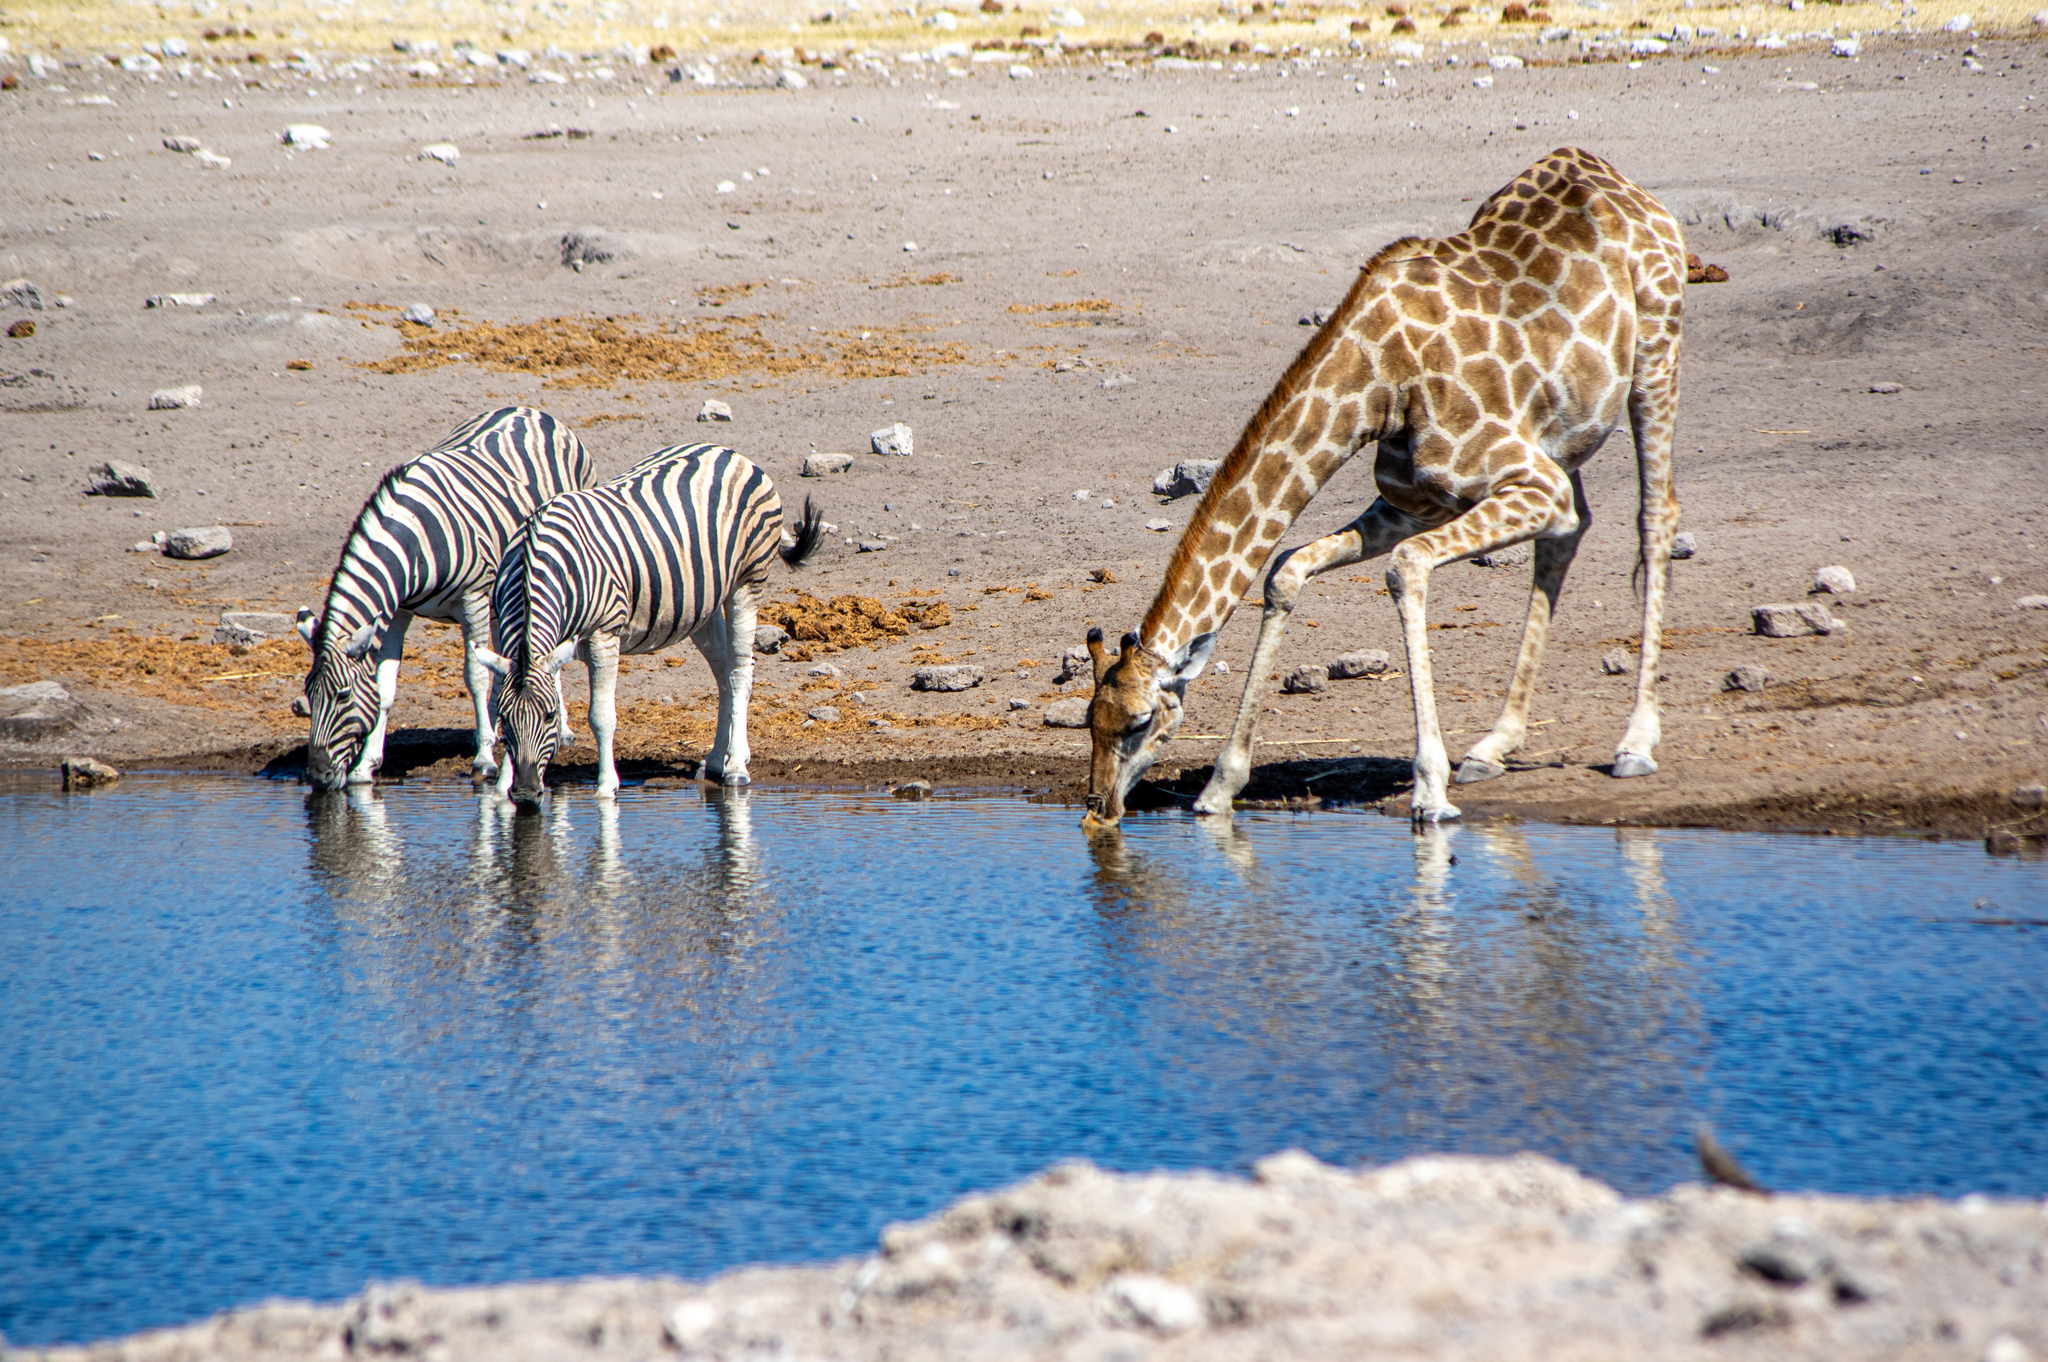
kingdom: Animalia
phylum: Chordata
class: Mammalia
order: Artiodactyla
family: Giraffidae
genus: Giraffa
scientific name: Giraffa giraffa
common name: Southern giraffe
